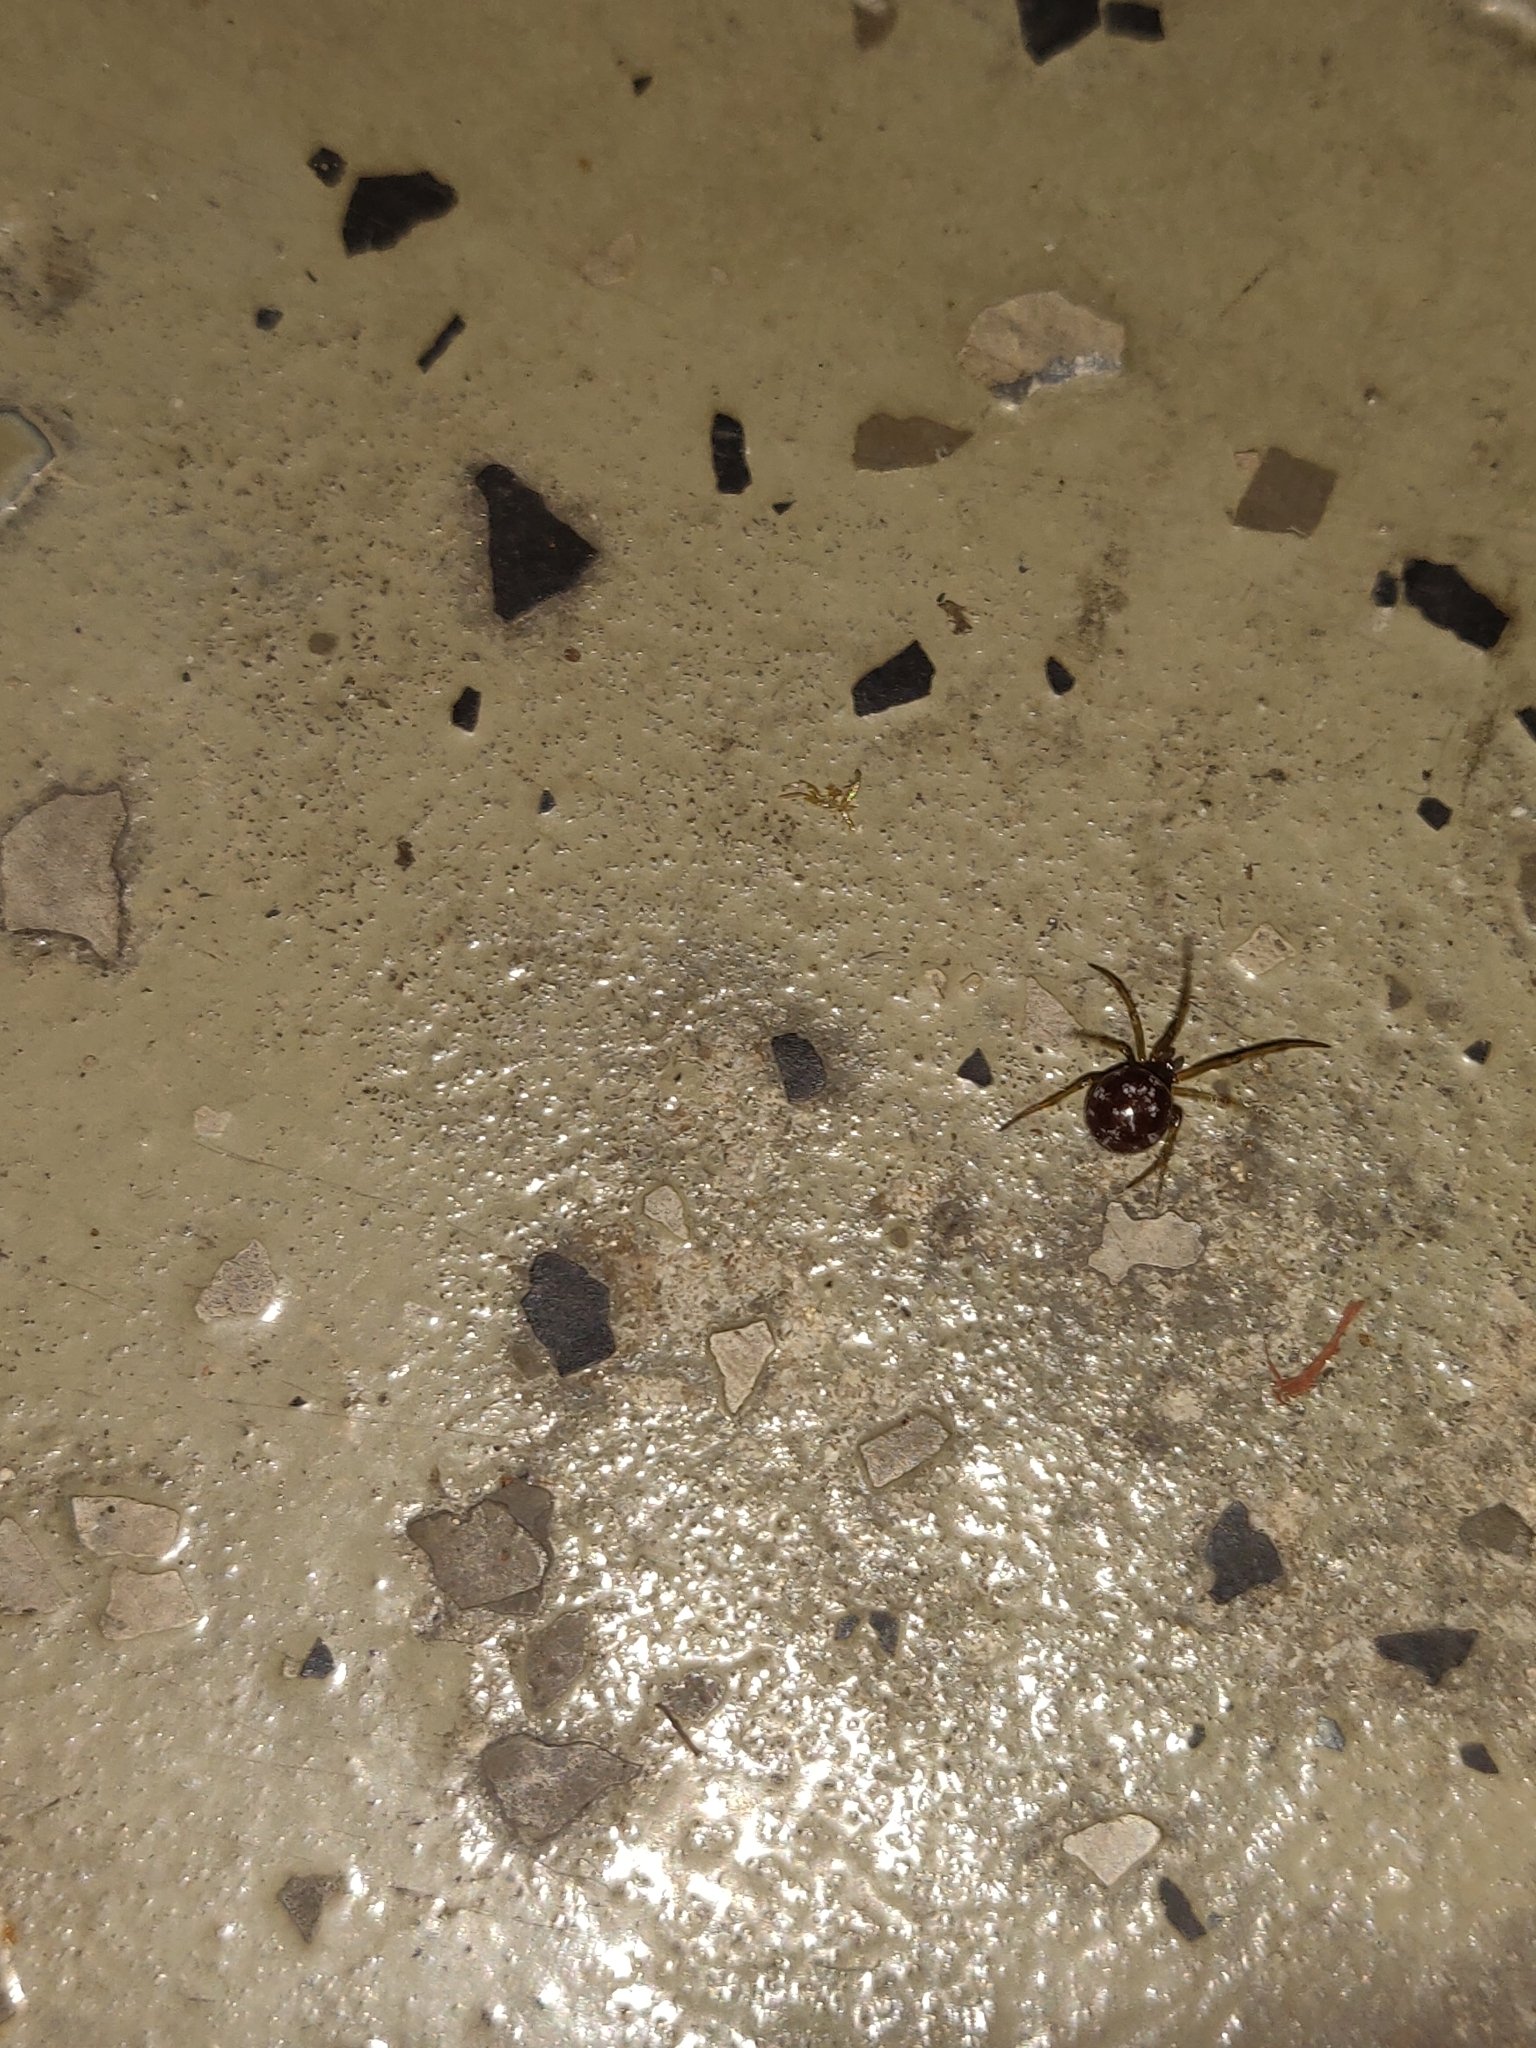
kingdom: Animalia
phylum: Arthropoda
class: Arachnida
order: Araneae
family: Theridiidae
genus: Steatoda
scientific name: Steatoda triangulosa
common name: Triangulate bud spider
